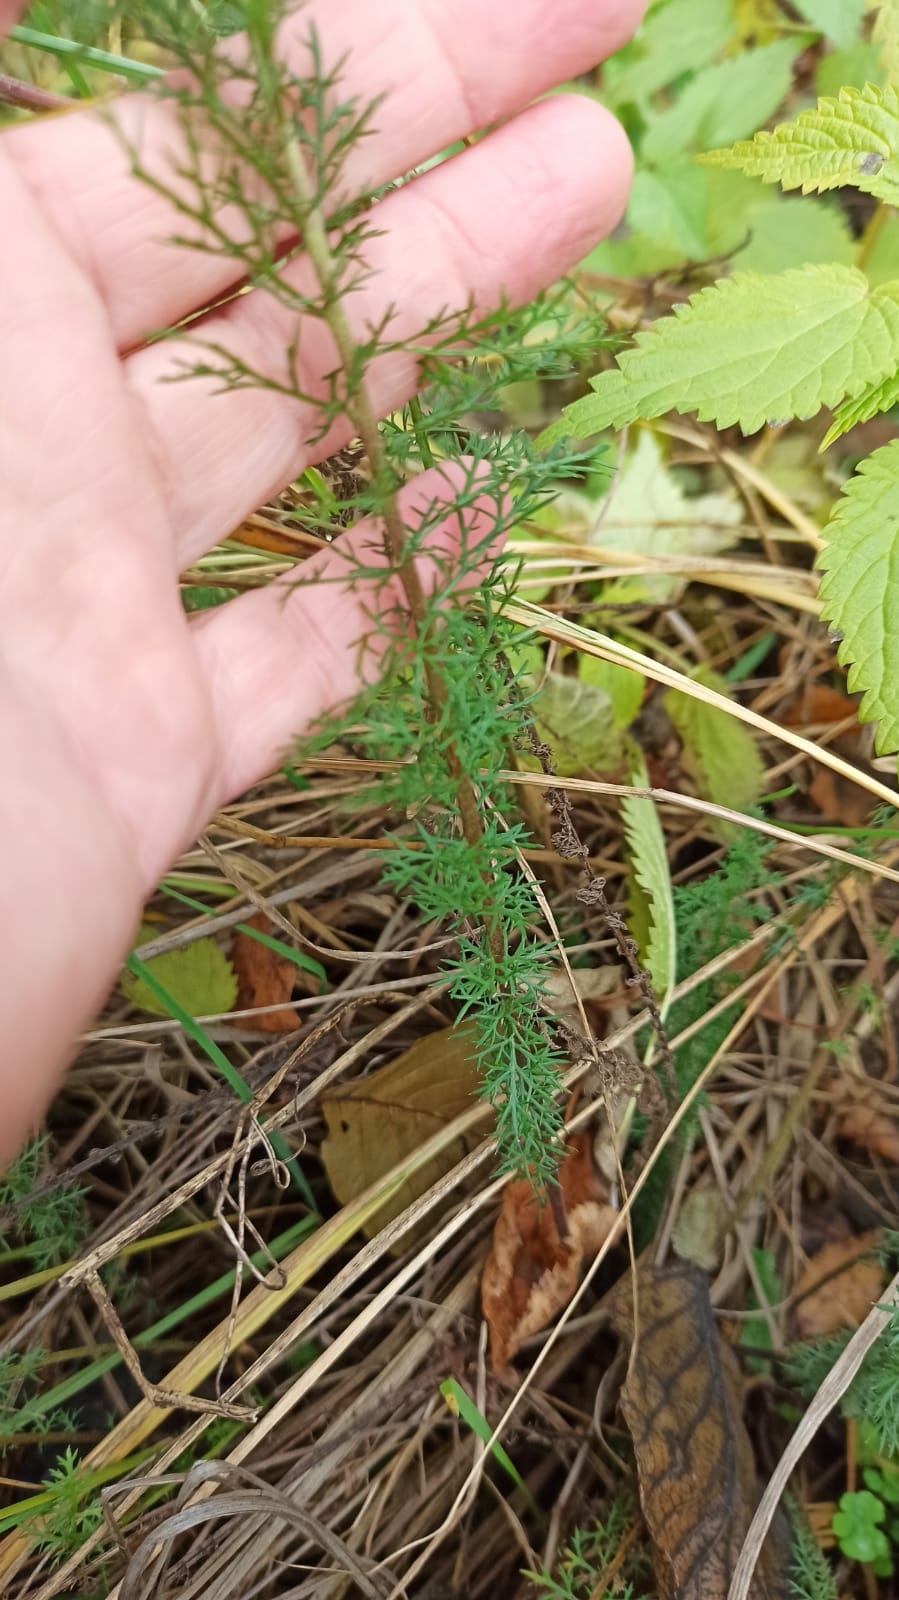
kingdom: Plantae
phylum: Tracheophyta
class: Magnoliopsida
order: Asterales
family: Asteraceae
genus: Achillea
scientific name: Achillea millefolium
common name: Yarrow
